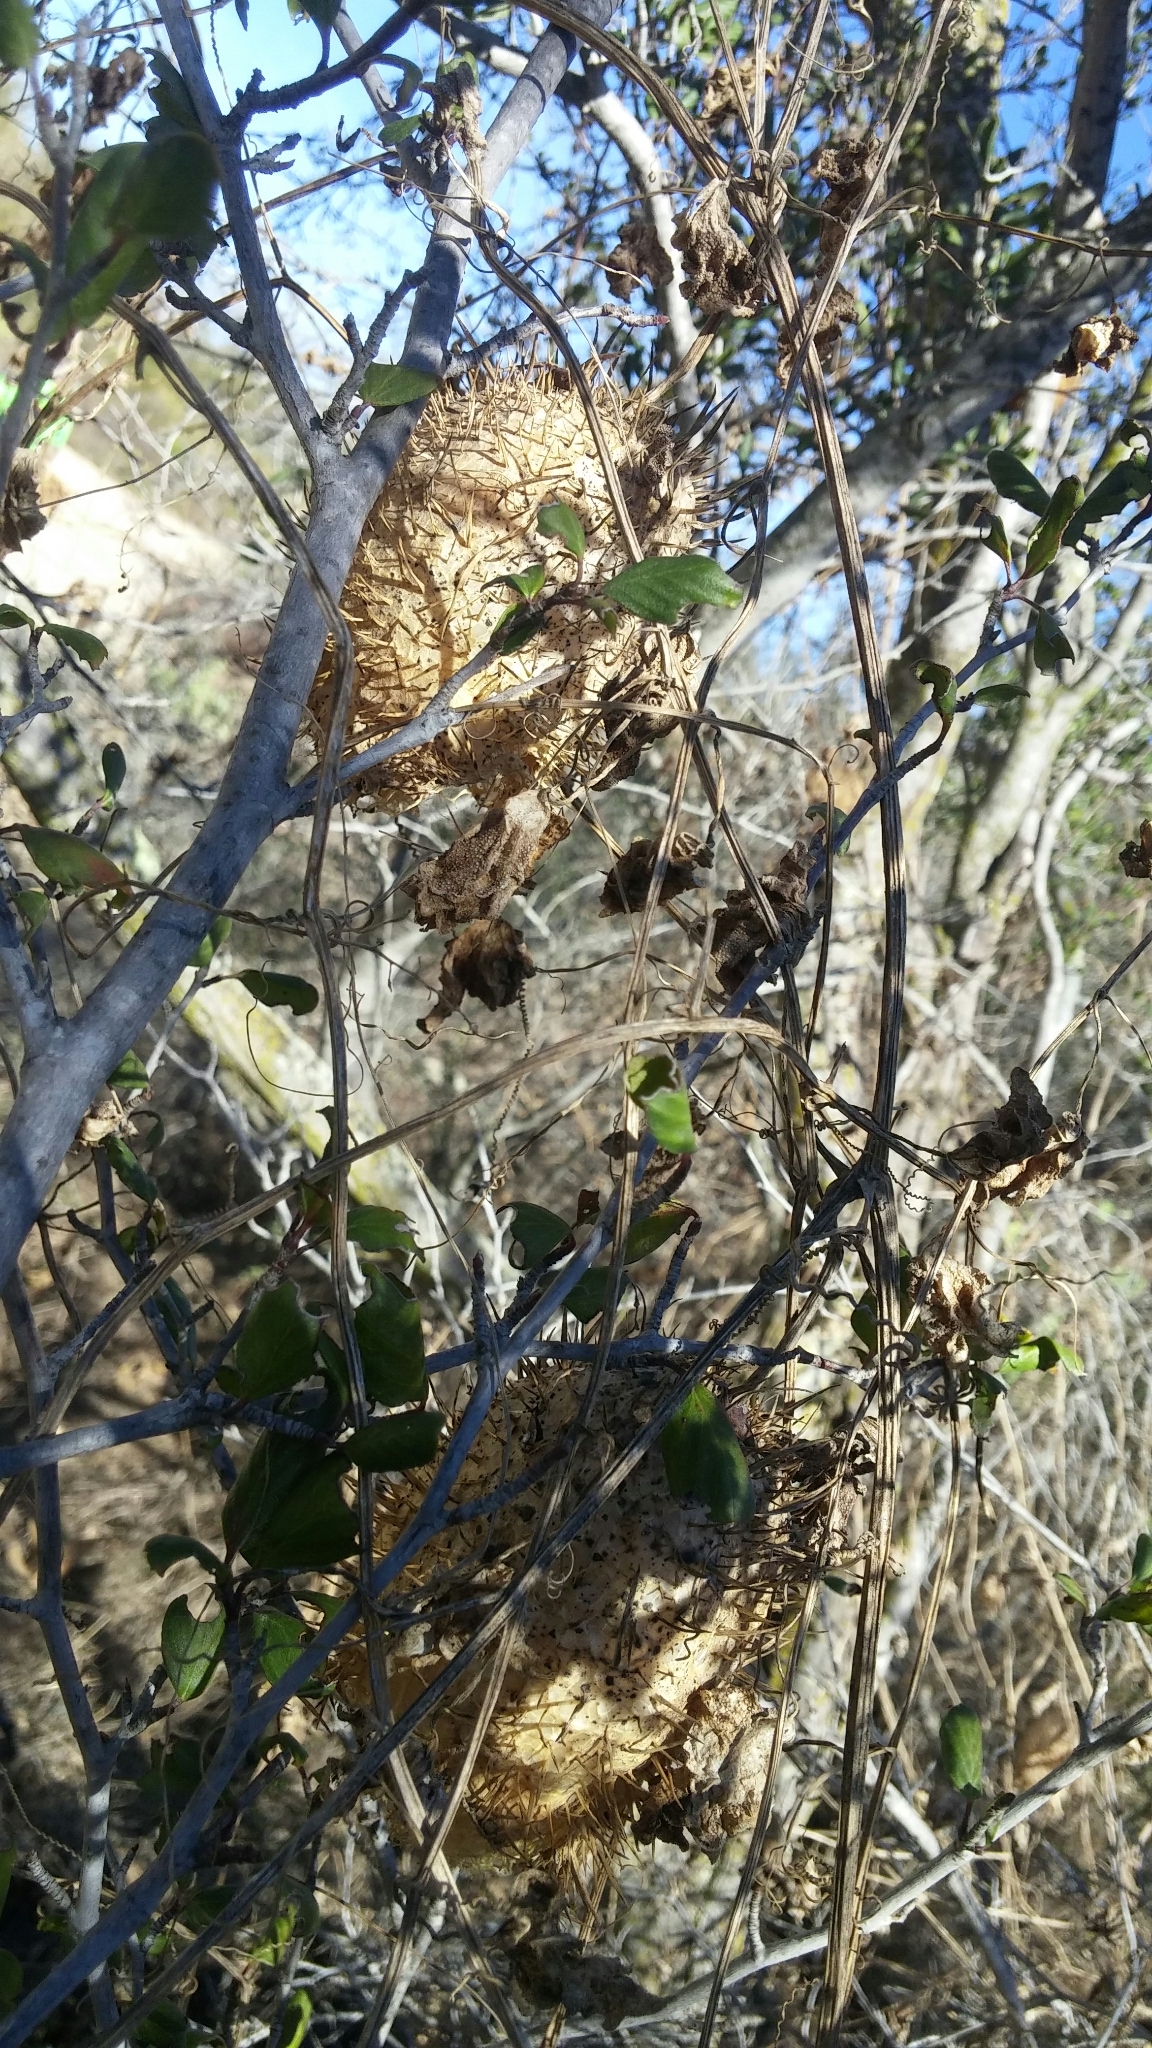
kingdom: Plantae
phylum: Tracheophyta
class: Magnoliopsida
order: Cucurbitales
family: Cucurbitaceae
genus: Marah
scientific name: Marah macrocarpa
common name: Cucamonga manroot
